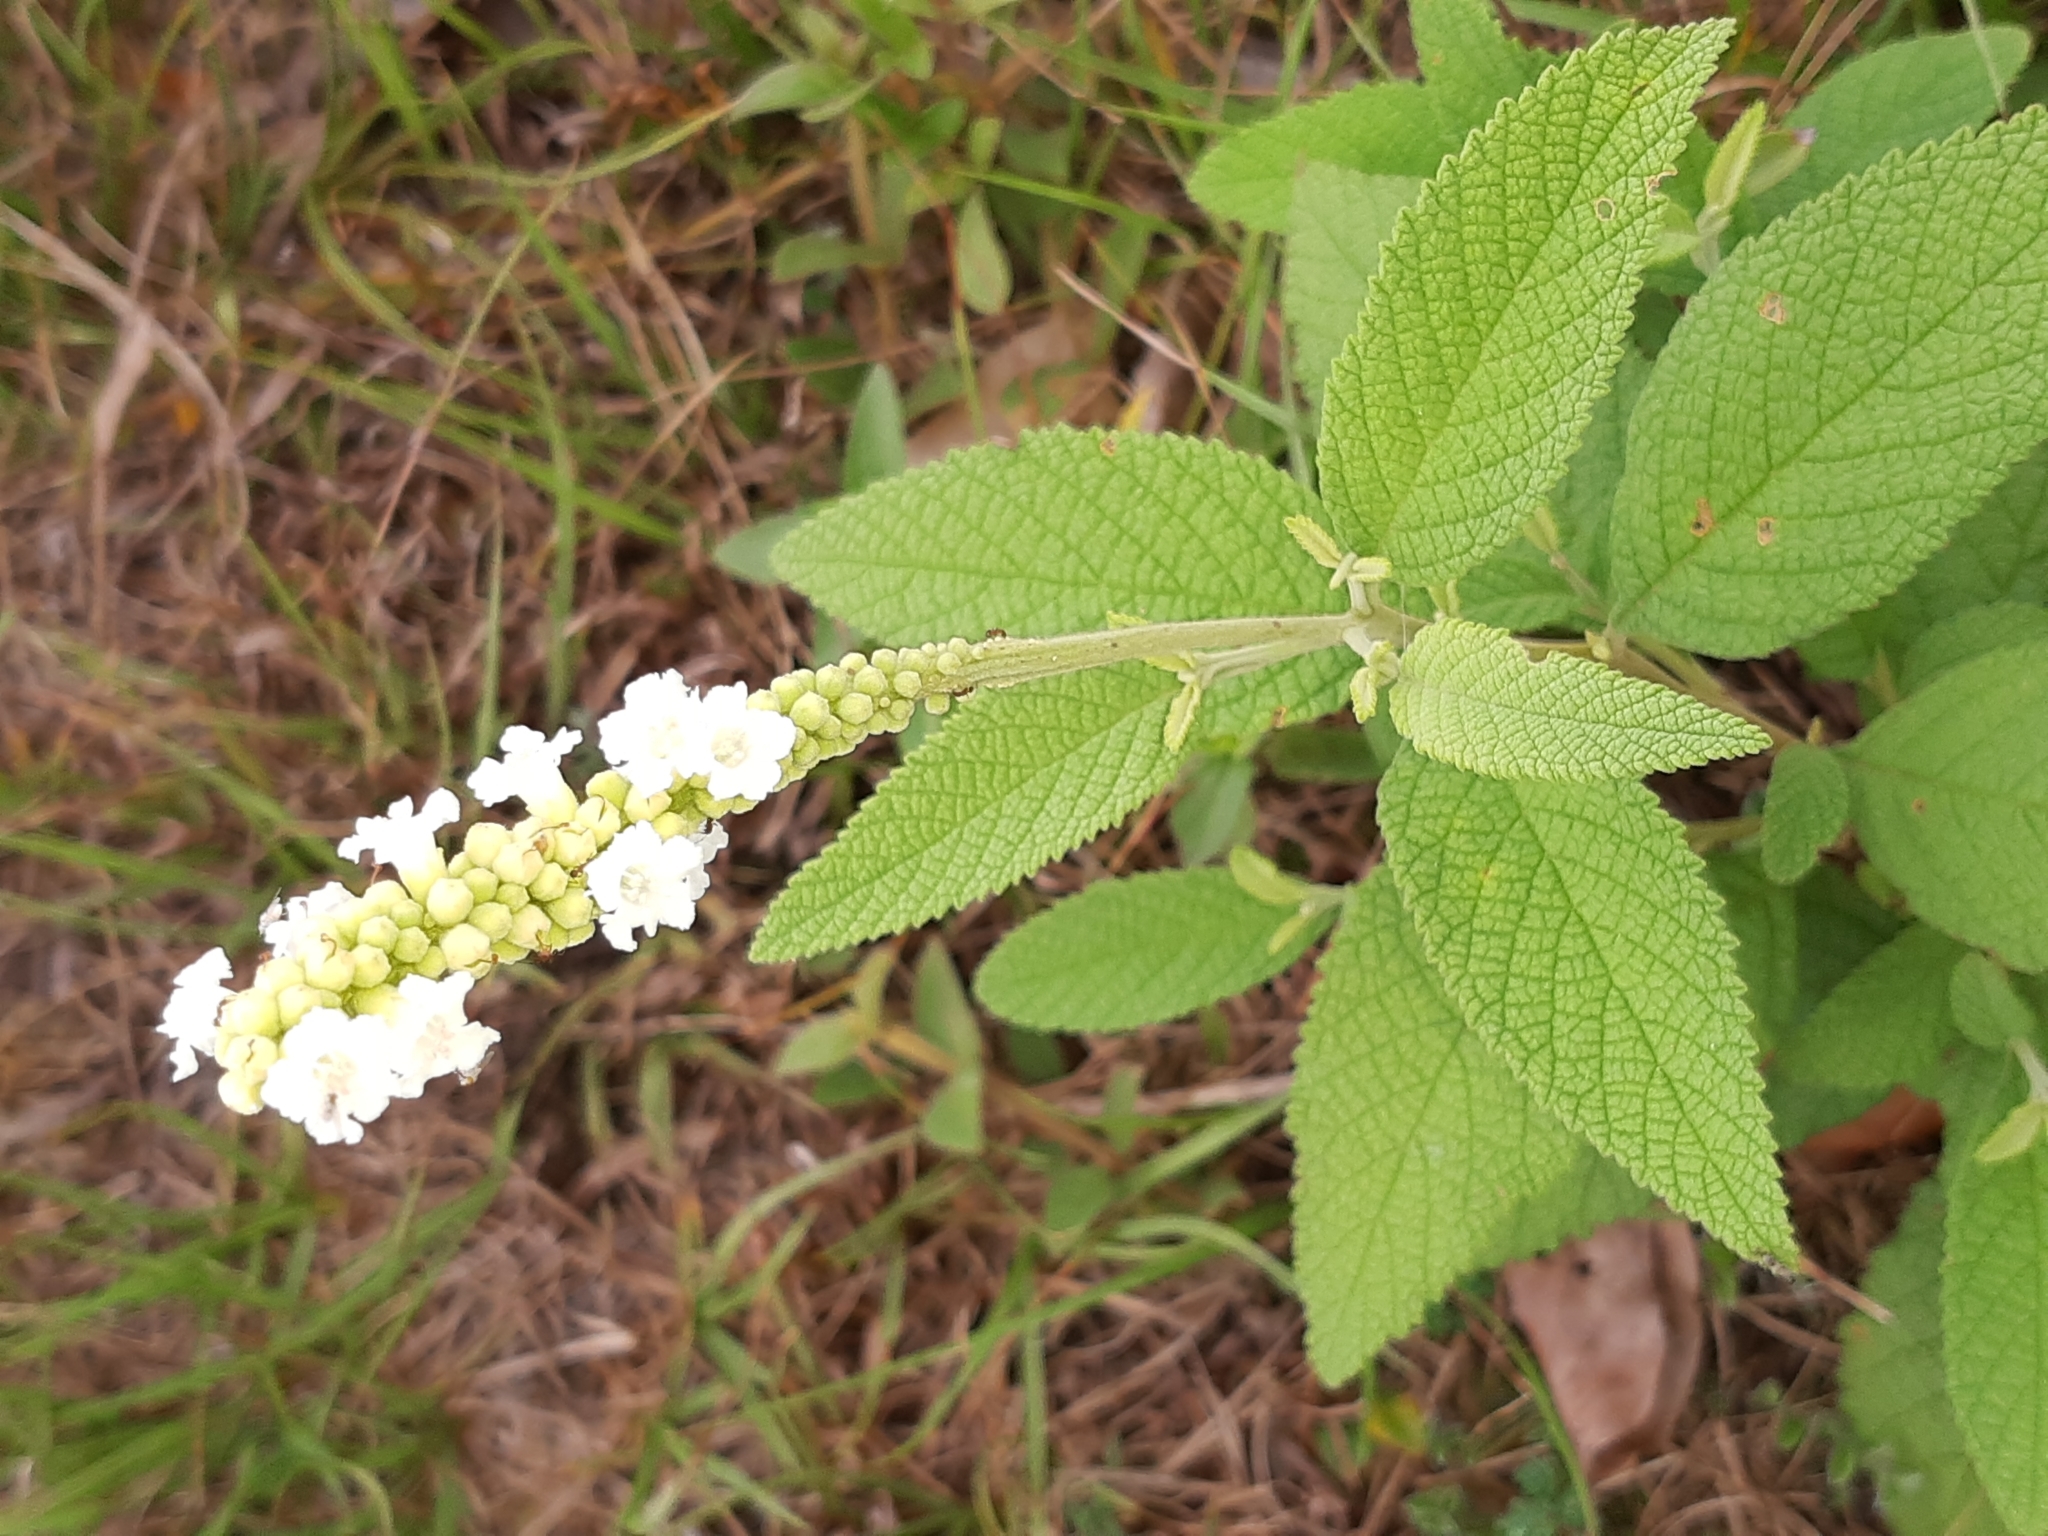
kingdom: Plantae
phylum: Tracheophyta
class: Magnoliopsida
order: Boraginales
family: Cordiaceae
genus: Varronia
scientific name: Varronia curassavica
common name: Black sage
